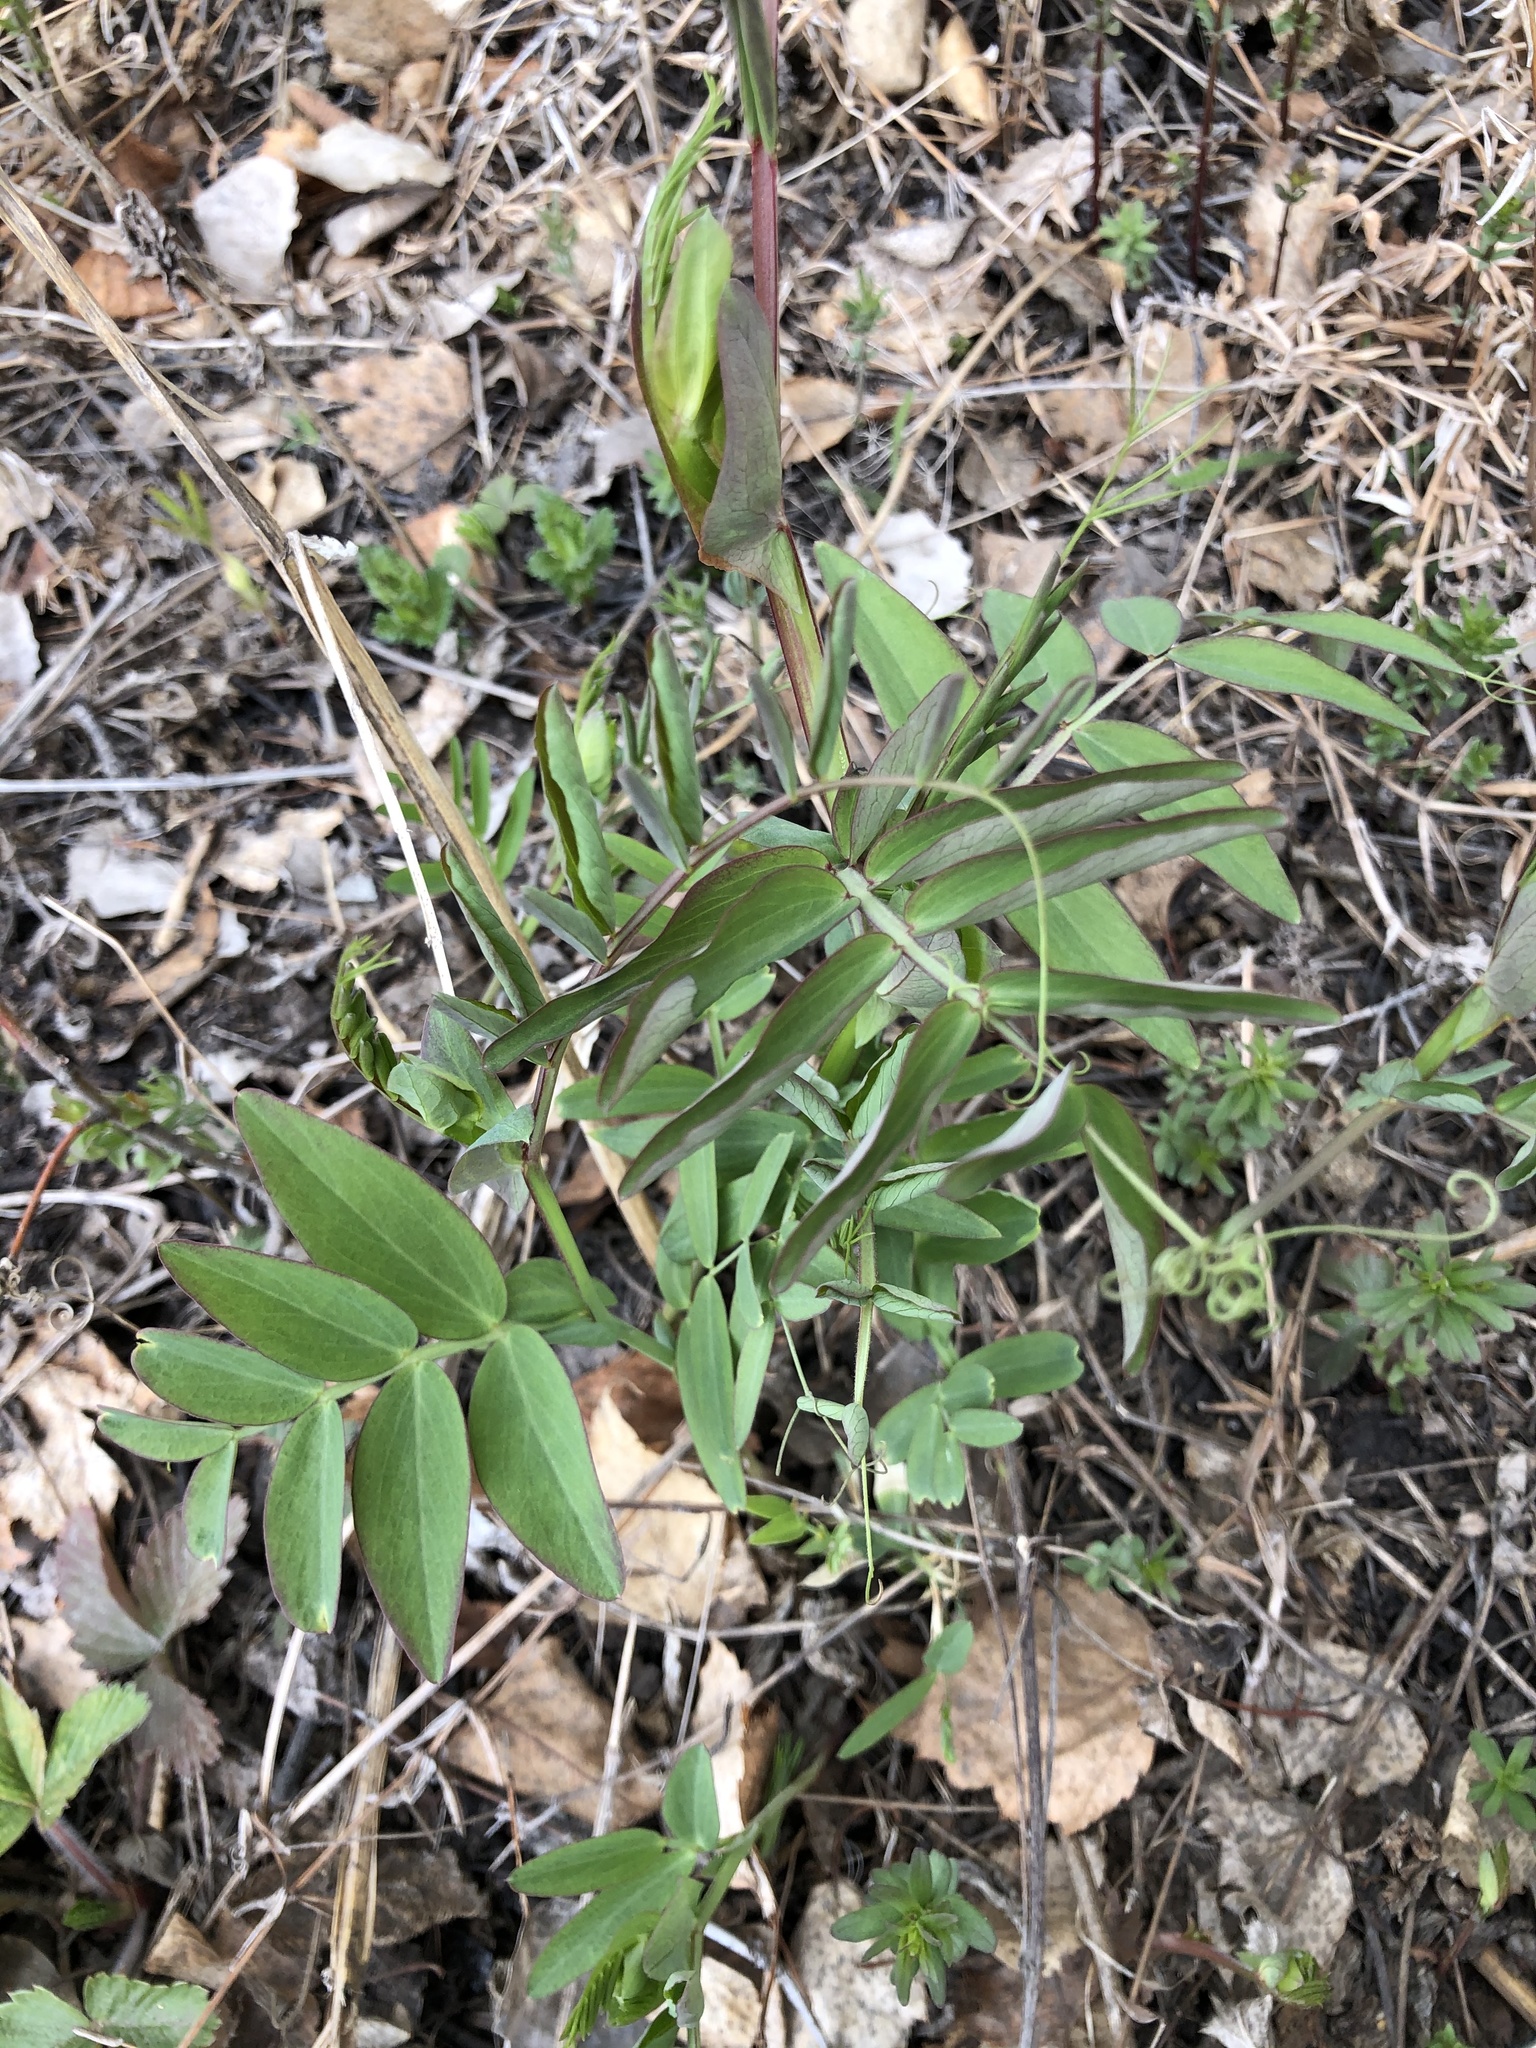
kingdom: Plantae
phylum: Tracheophyta
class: Magnoliopsida
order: Fabales
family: Fabaceae
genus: Lathyrus
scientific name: Lathyrus pisiformis
